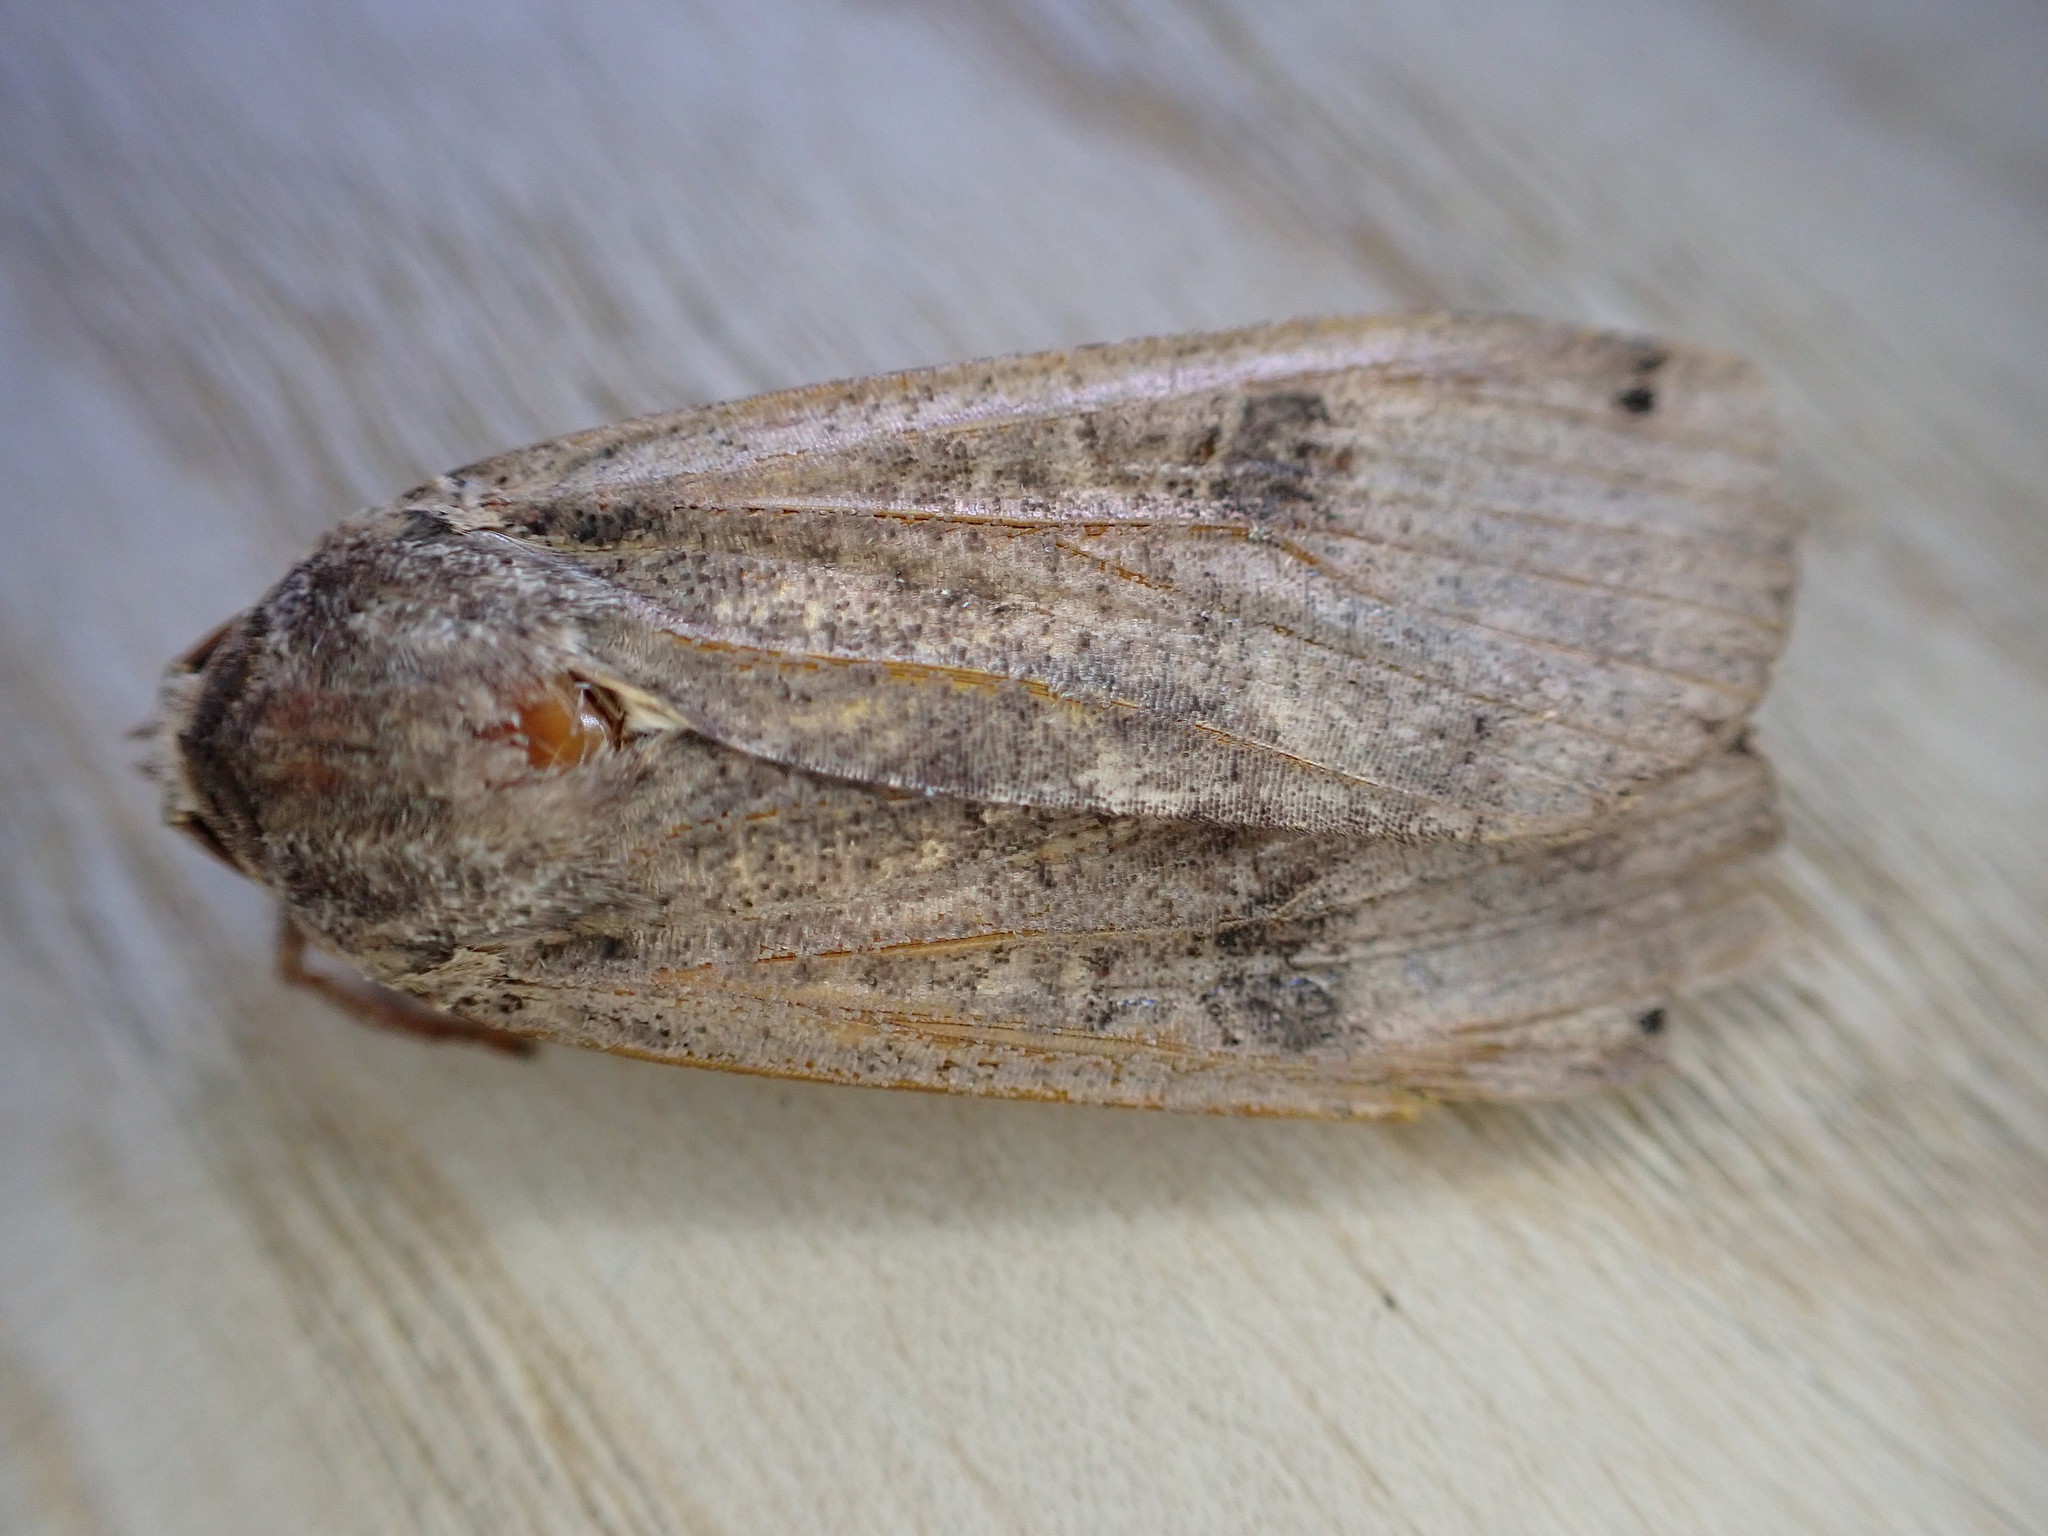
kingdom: Animalia
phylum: Arthropoda
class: Insecta
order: Lepidoptera
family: Noctuidae
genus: Noctua
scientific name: Noctua pronuba
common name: Large yellow underwing
